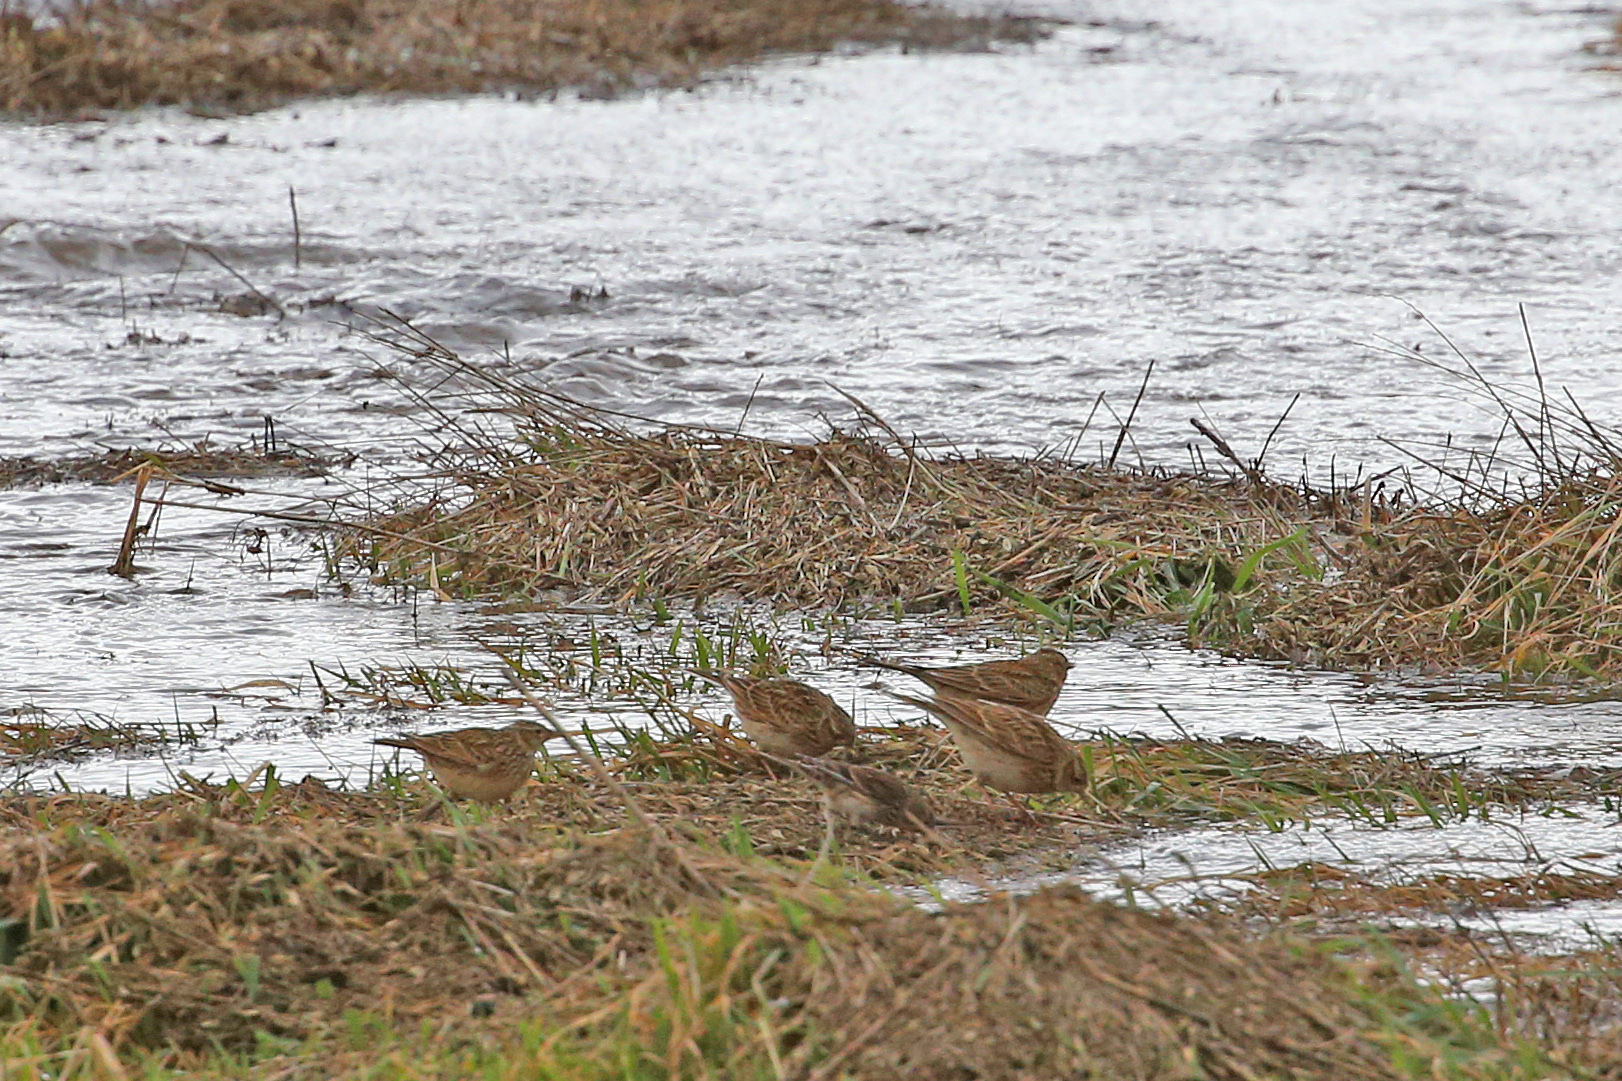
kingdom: Animalia
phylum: Chordata
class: Aves
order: Passeriformes
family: Alaudidae
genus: Alauda
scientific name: Alauda arvensis
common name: Eurasian skylark
